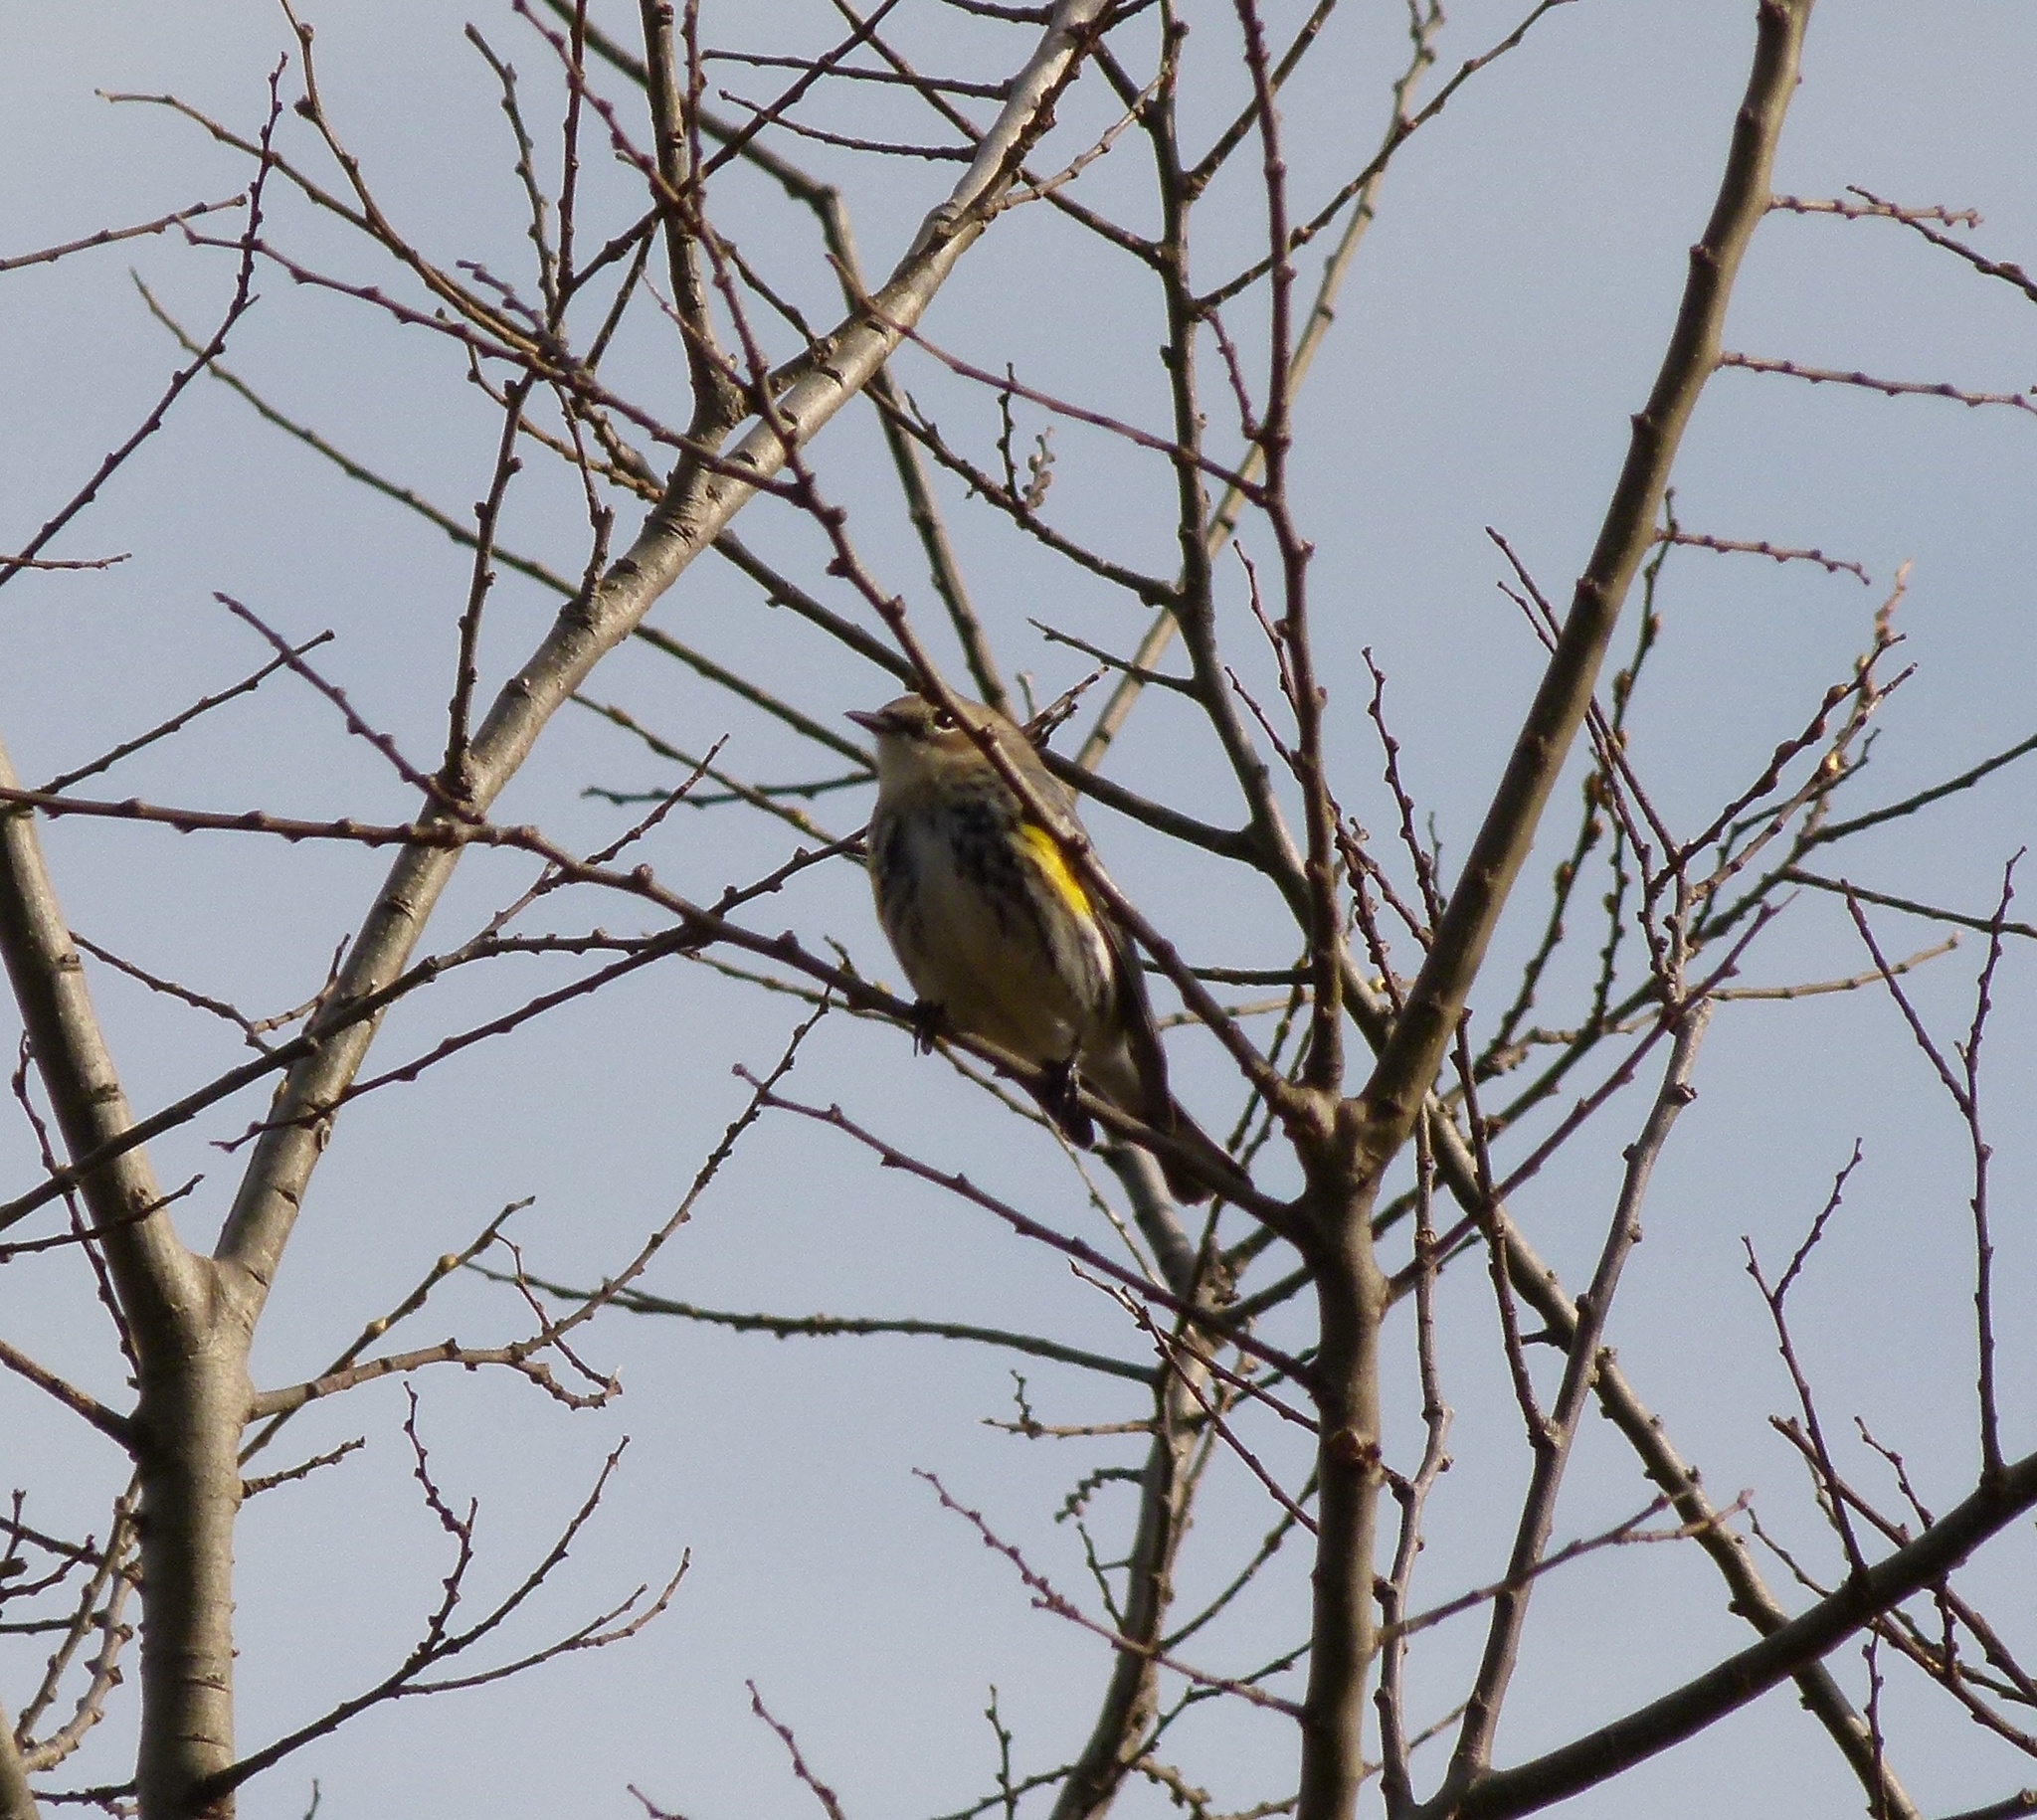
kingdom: Animalia
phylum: Chordata
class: Aves
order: Passeriformes
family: Parulidae
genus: Setophaga
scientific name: Setophaga coronata
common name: Myrtle warbler
